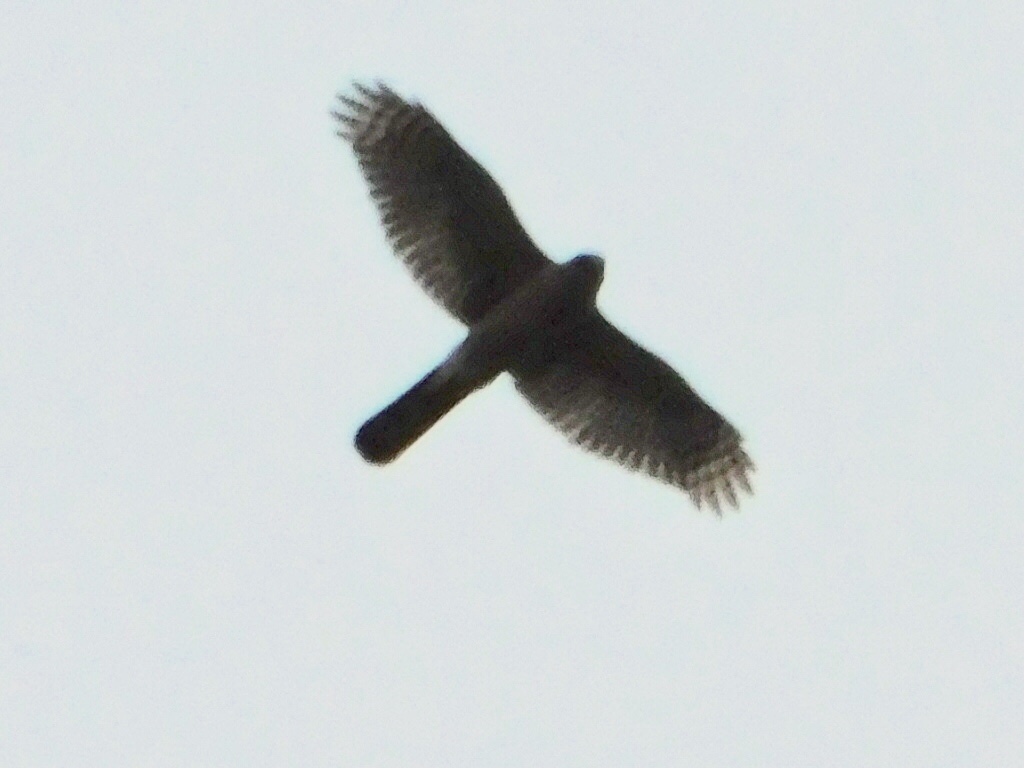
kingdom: Animalia
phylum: Chordata
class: Aves
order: Accipitriformes
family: Accipitridae
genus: Accipiter
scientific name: Accipiter cooperii
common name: Cooper's hawk
